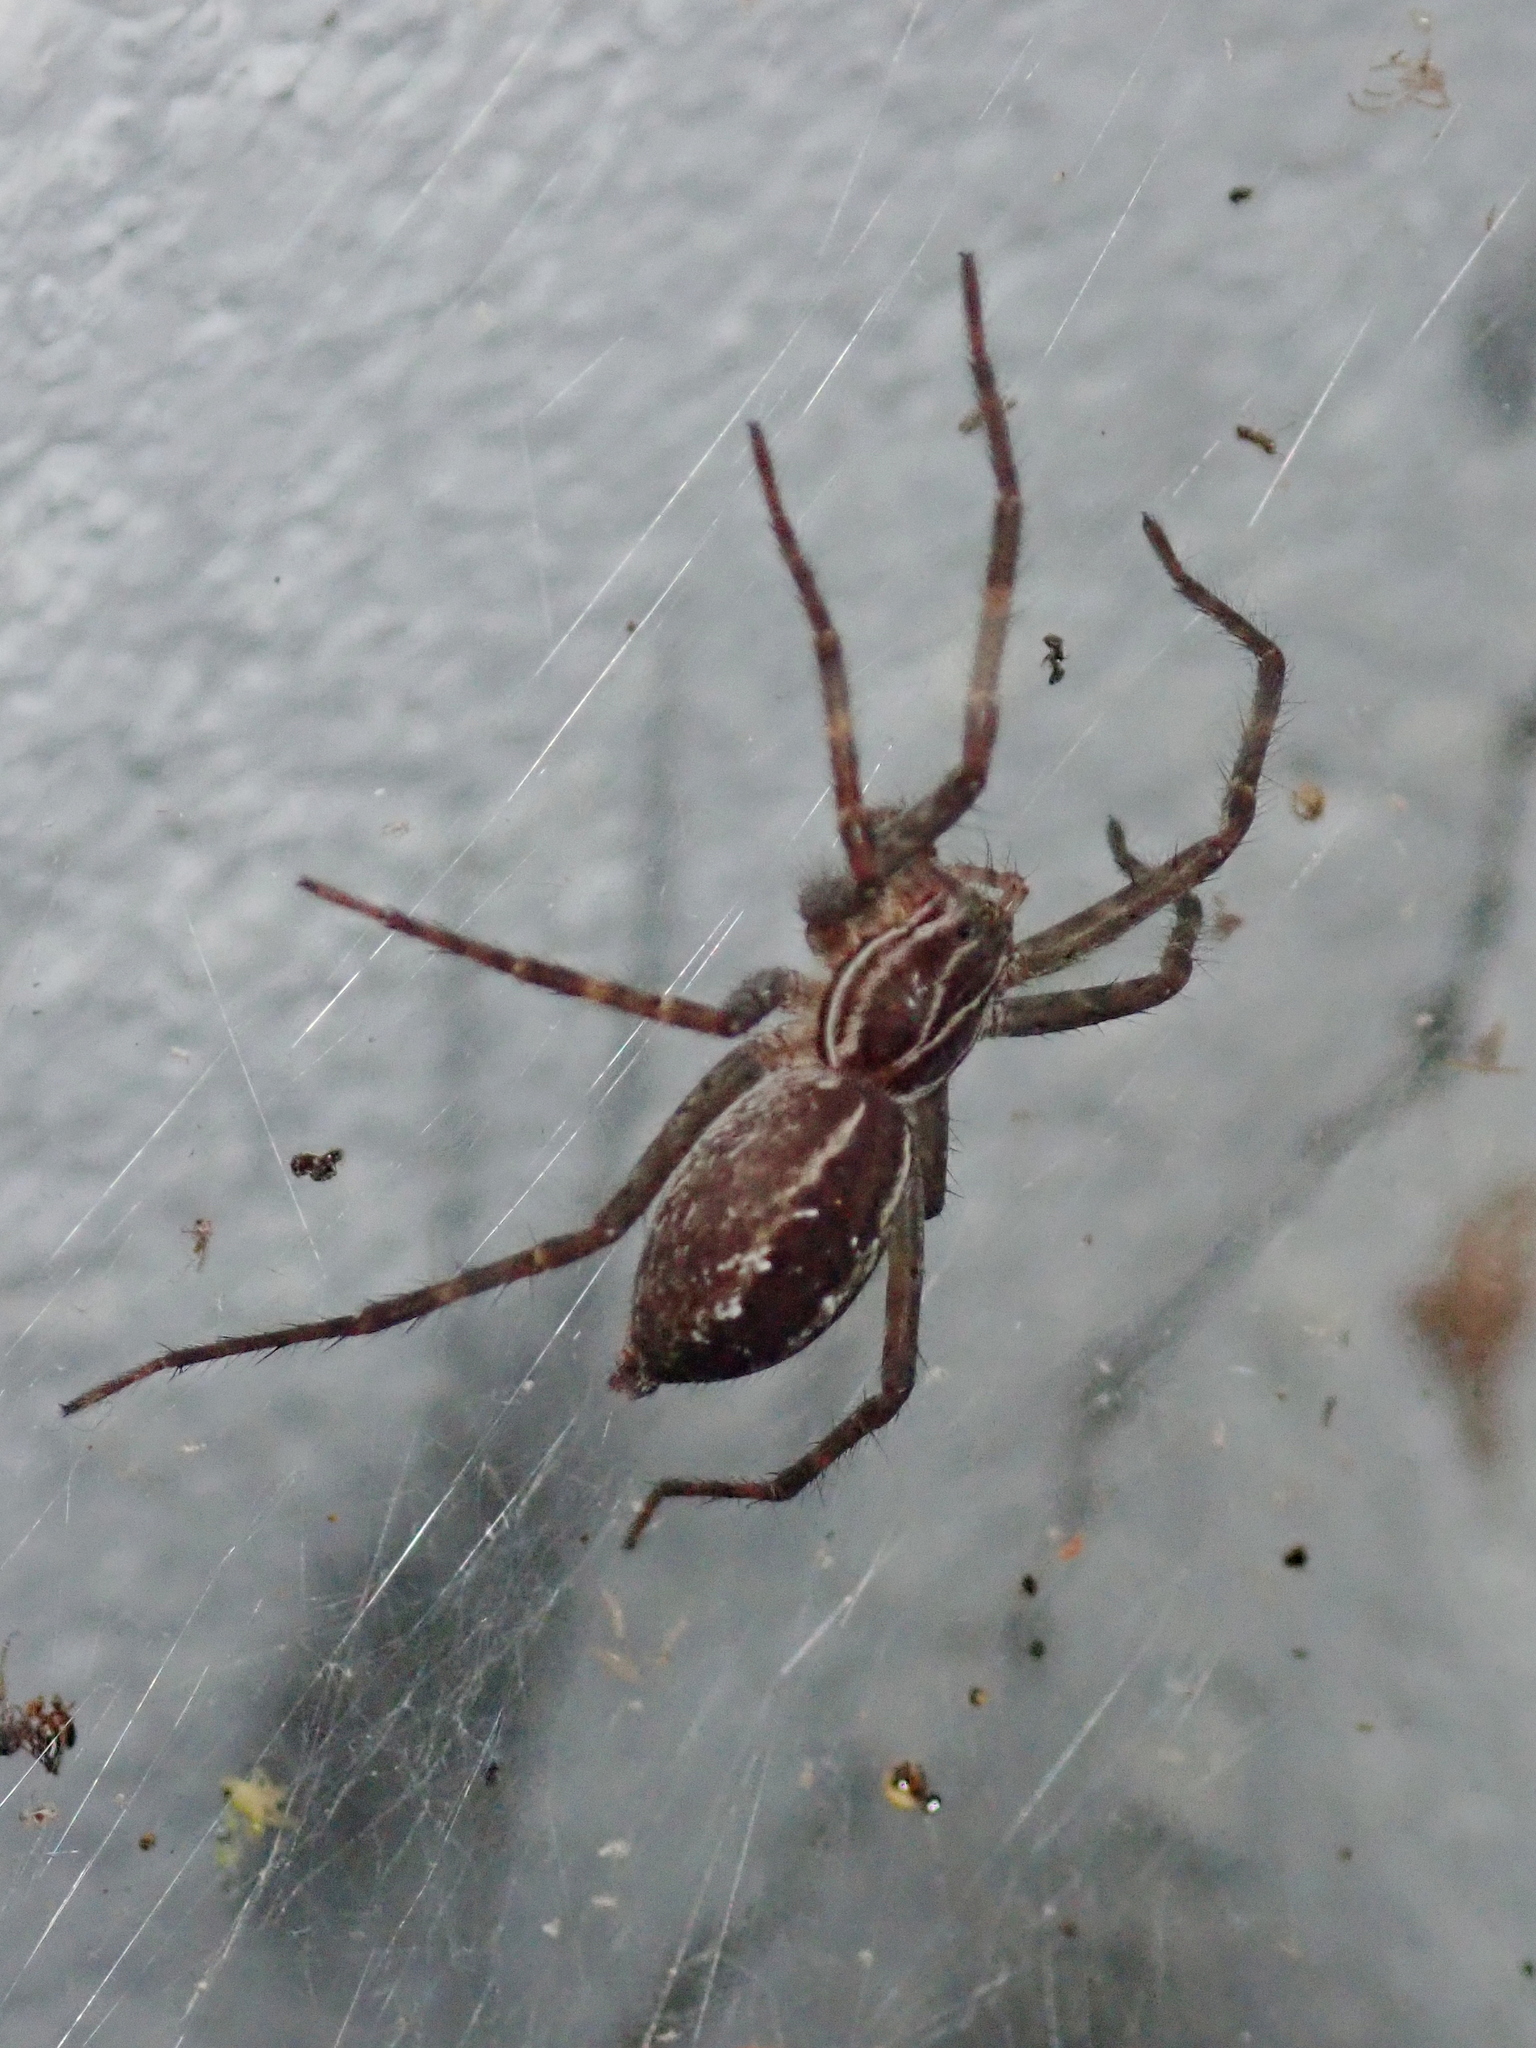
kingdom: Animalia
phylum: Arthropoda
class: Arachnida
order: Araneae
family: Lycosidae
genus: Aglaoctenus
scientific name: Aglaoctenus lagotis
